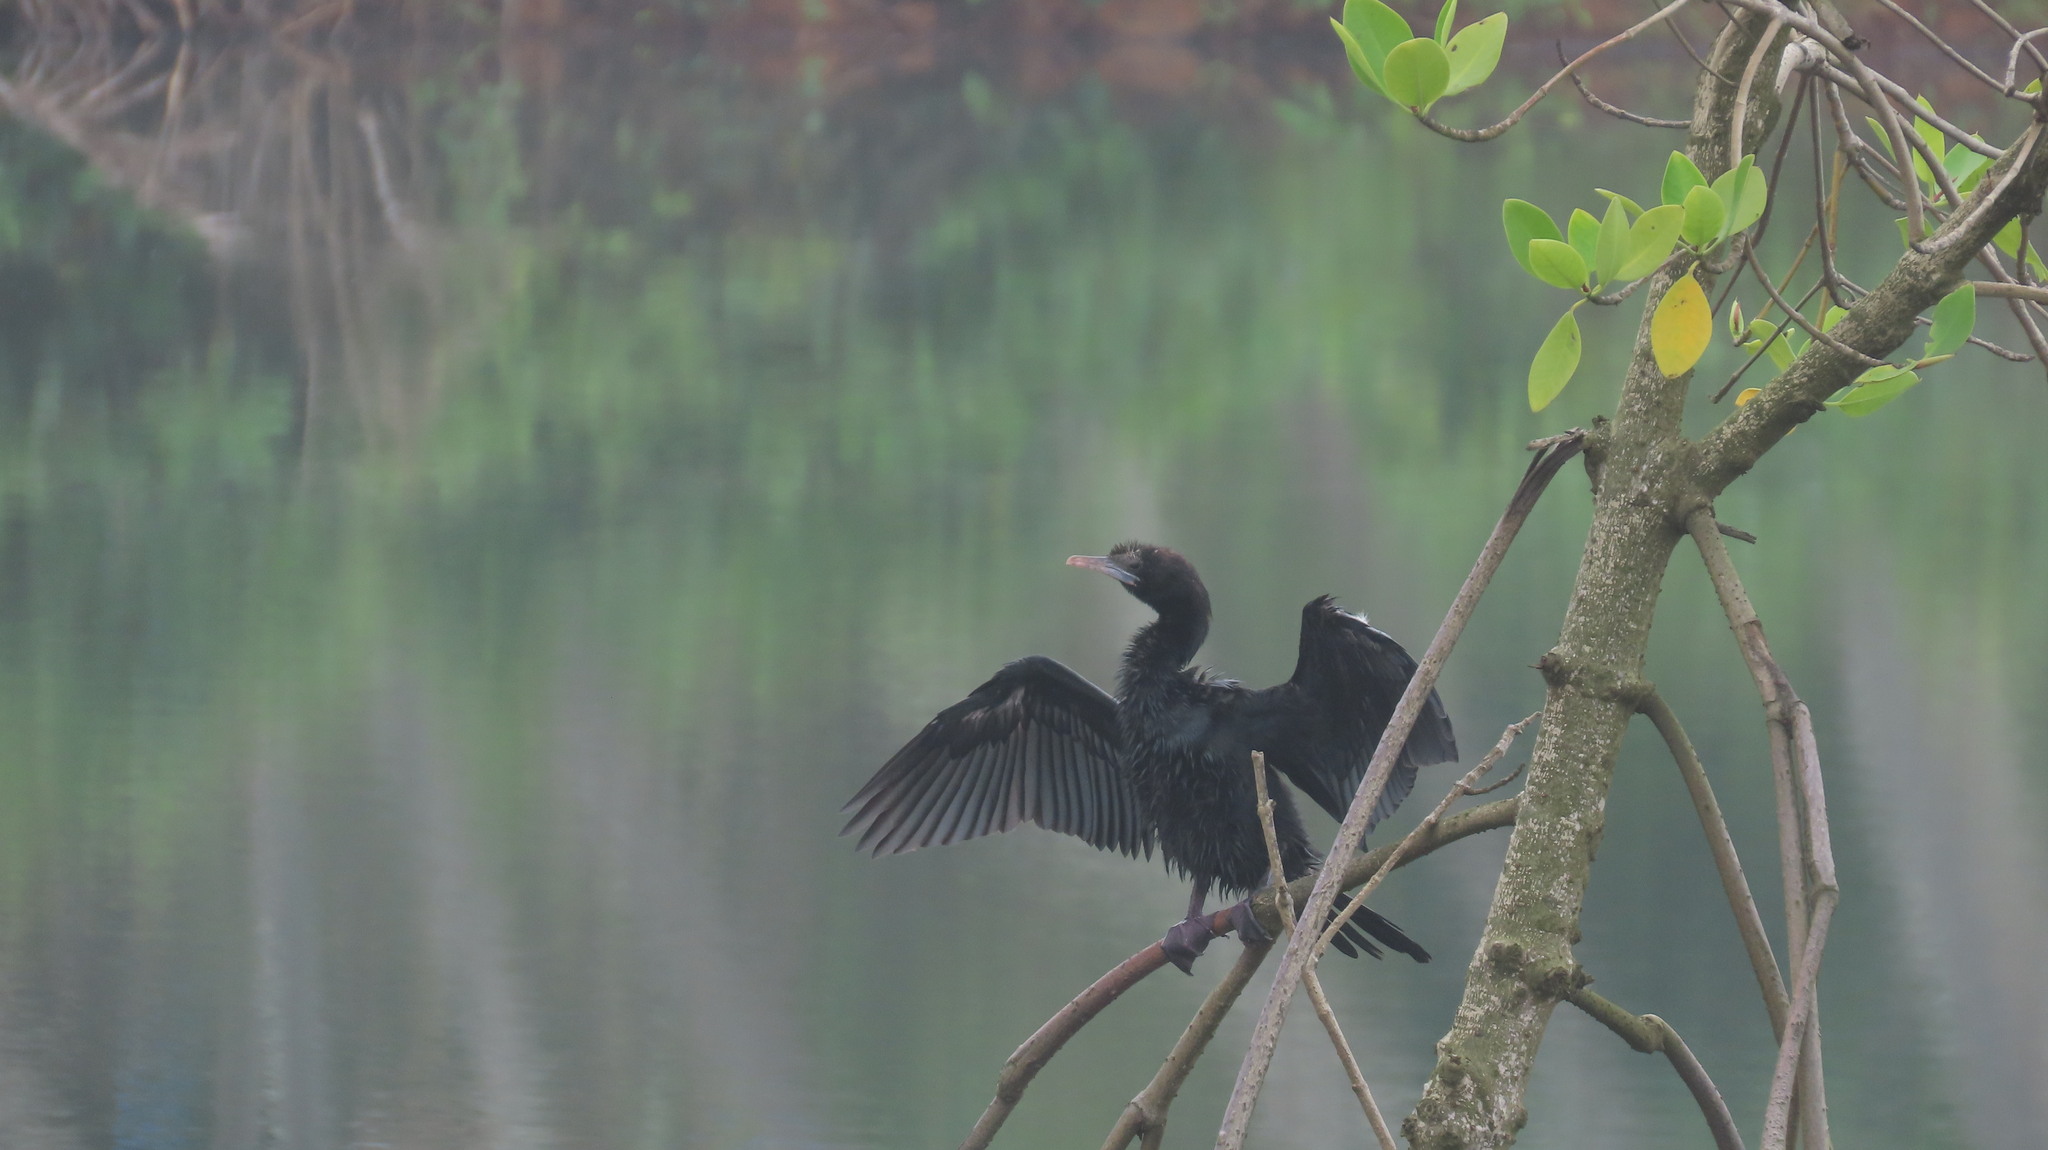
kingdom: Animalia
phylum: Chordata
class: Aves
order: Suliformes
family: Phalacrocoracidae
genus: Microcarbo
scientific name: Microcarbo niger
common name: Little cormorant
